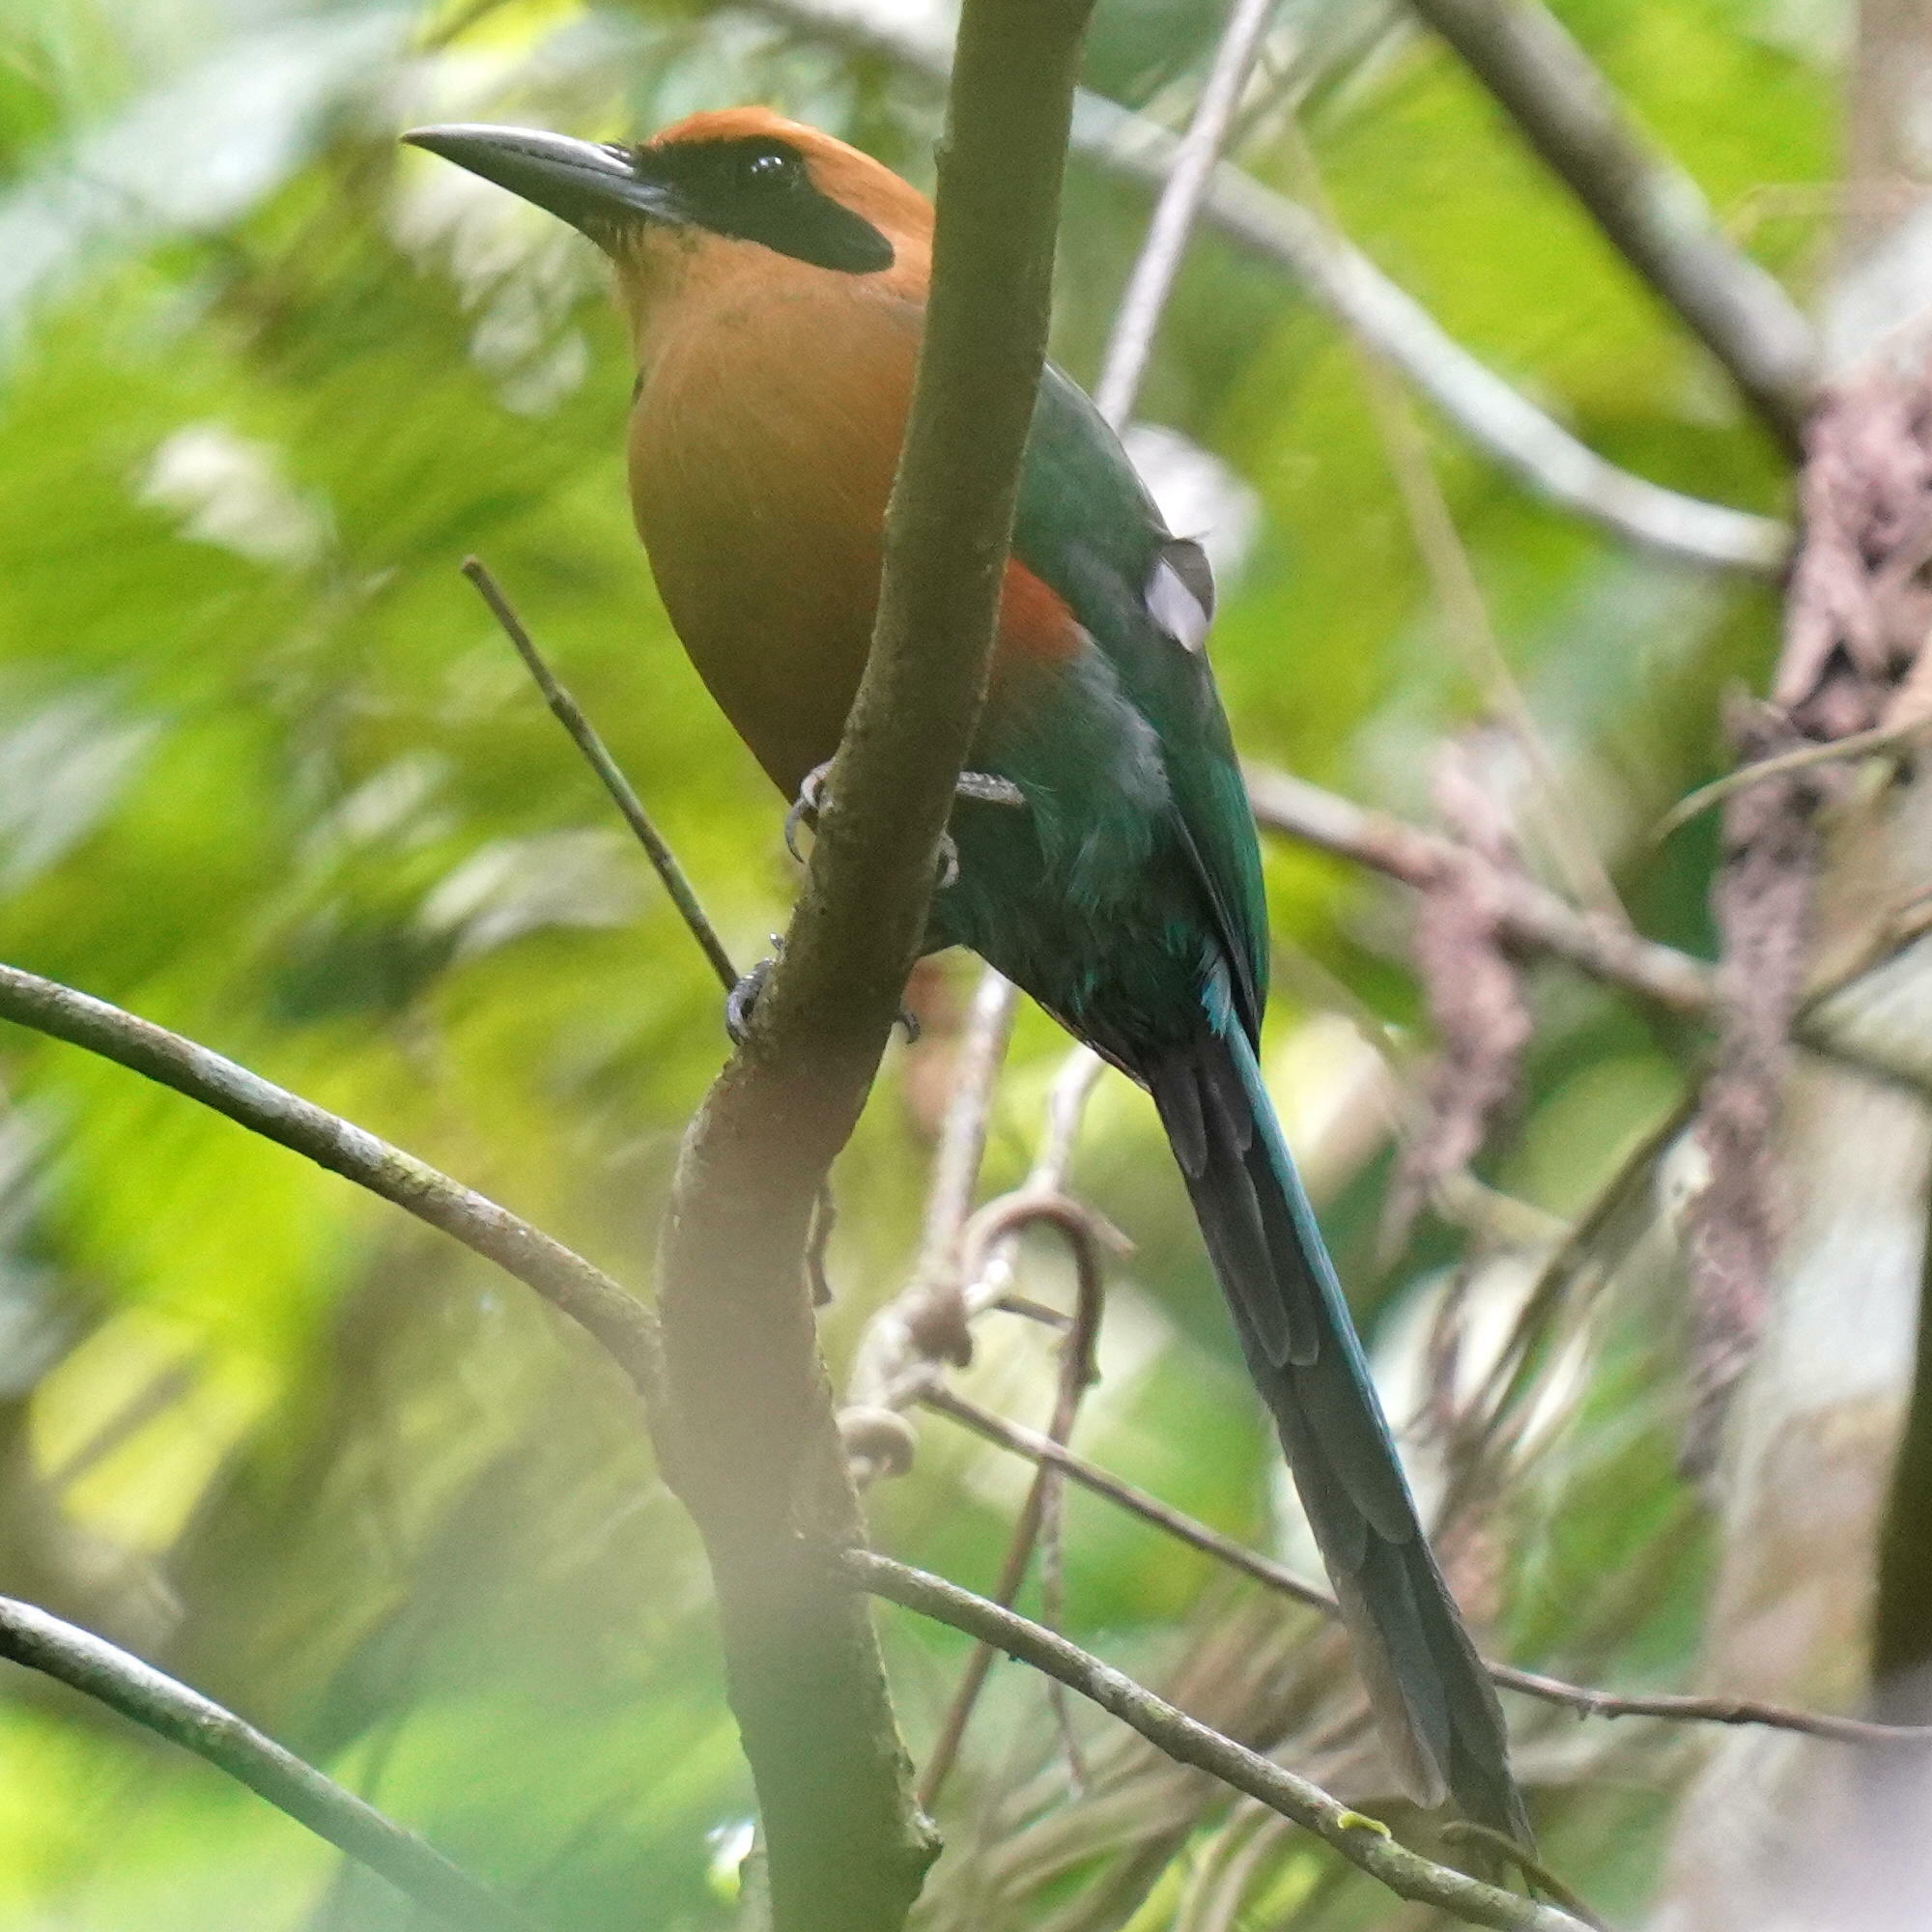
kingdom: Animalia
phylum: Chordata
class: Aves
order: Coraciiformes
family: Momotidae
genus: Baryphthengus
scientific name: Baryphthengus martii
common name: Rufous motmot
